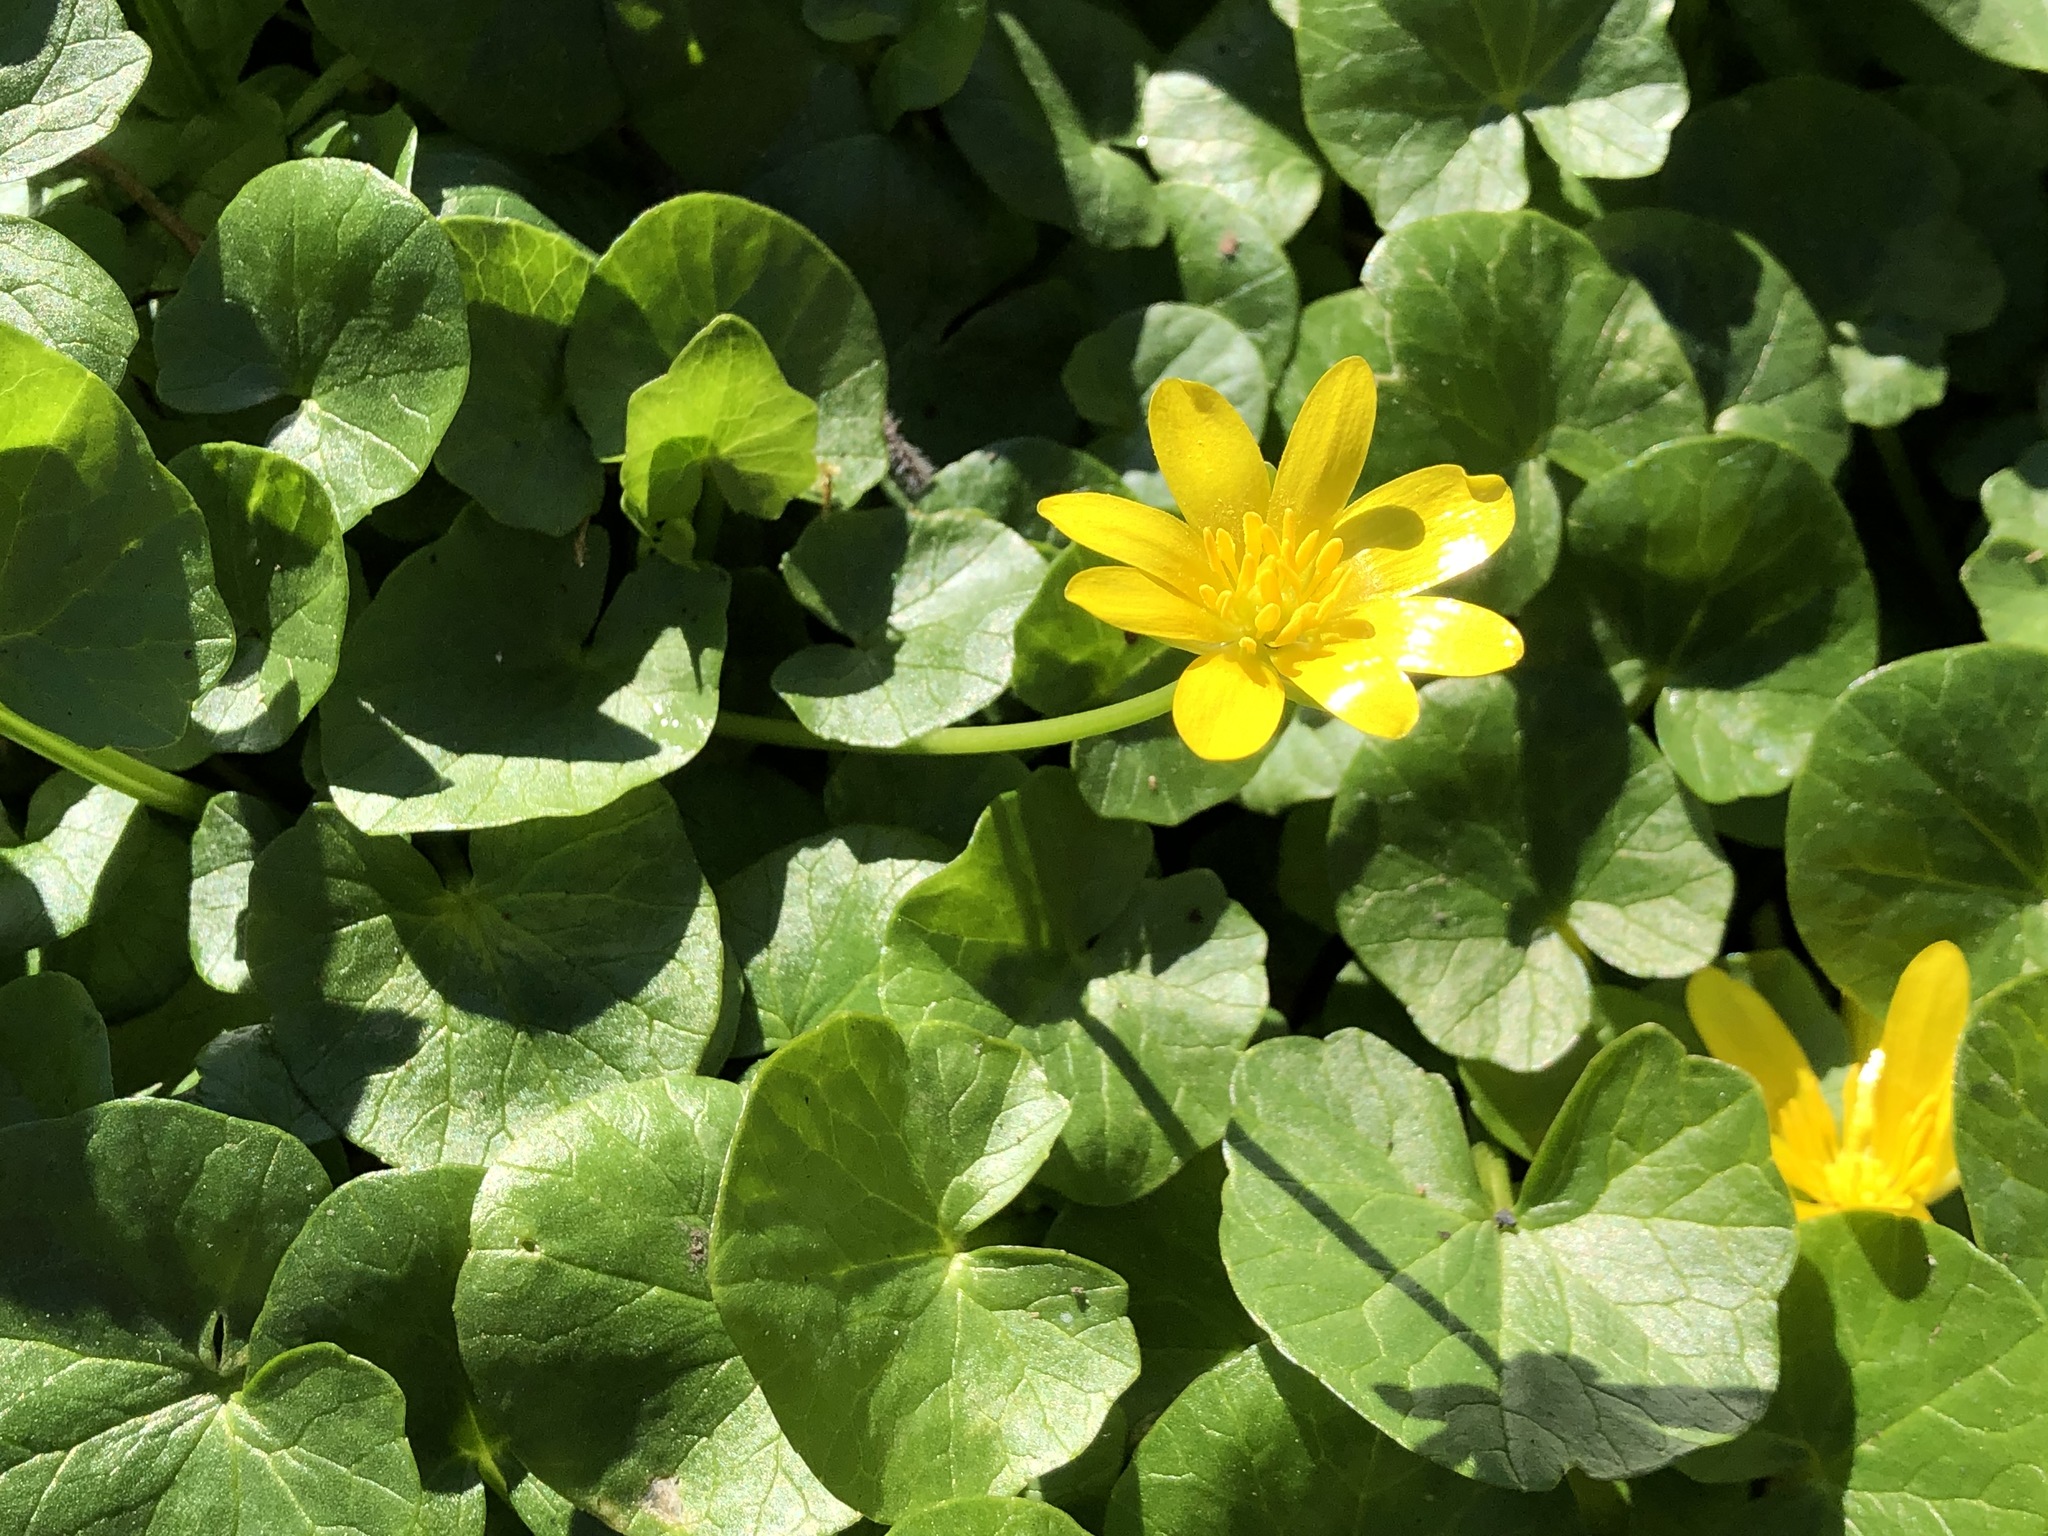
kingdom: Plantae
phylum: Tracheophyta
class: Magnoliopsida
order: Ranunculales
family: Ranunculaceae
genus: Ficaria
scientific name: Ficaria verna
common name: Lesser celandine
